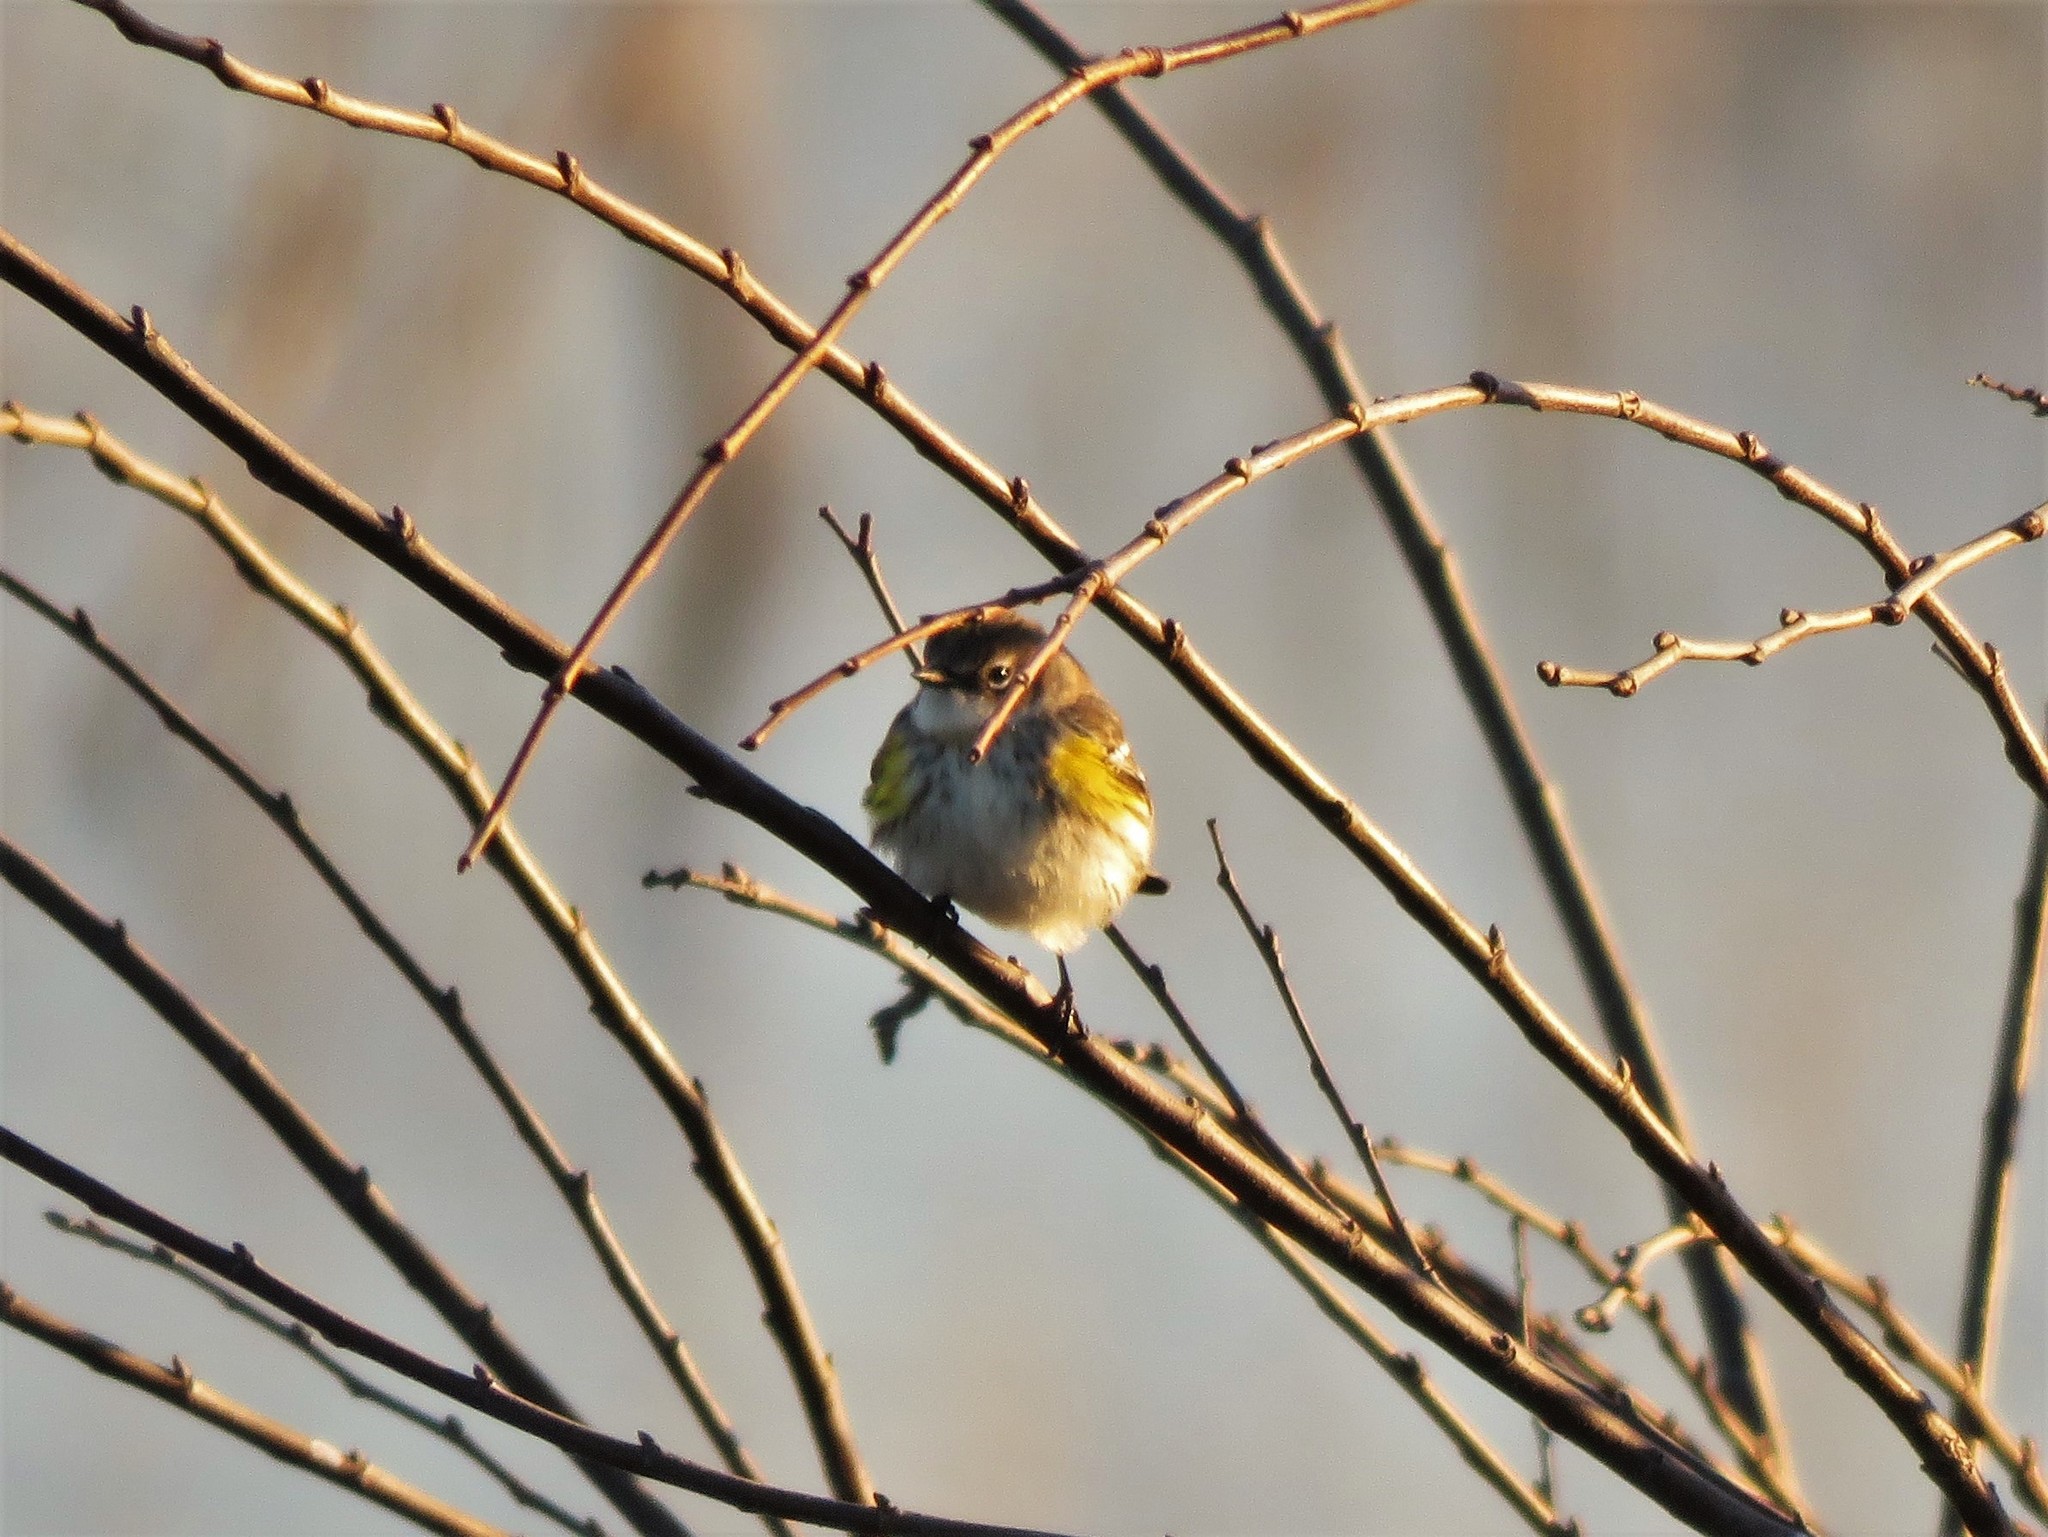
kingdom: Animalia
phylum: Chordata
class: Aves
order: Passeriformes
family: Parulidae
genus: Setophaga
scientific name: Setophaga coronata
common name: Myrtle warbler
